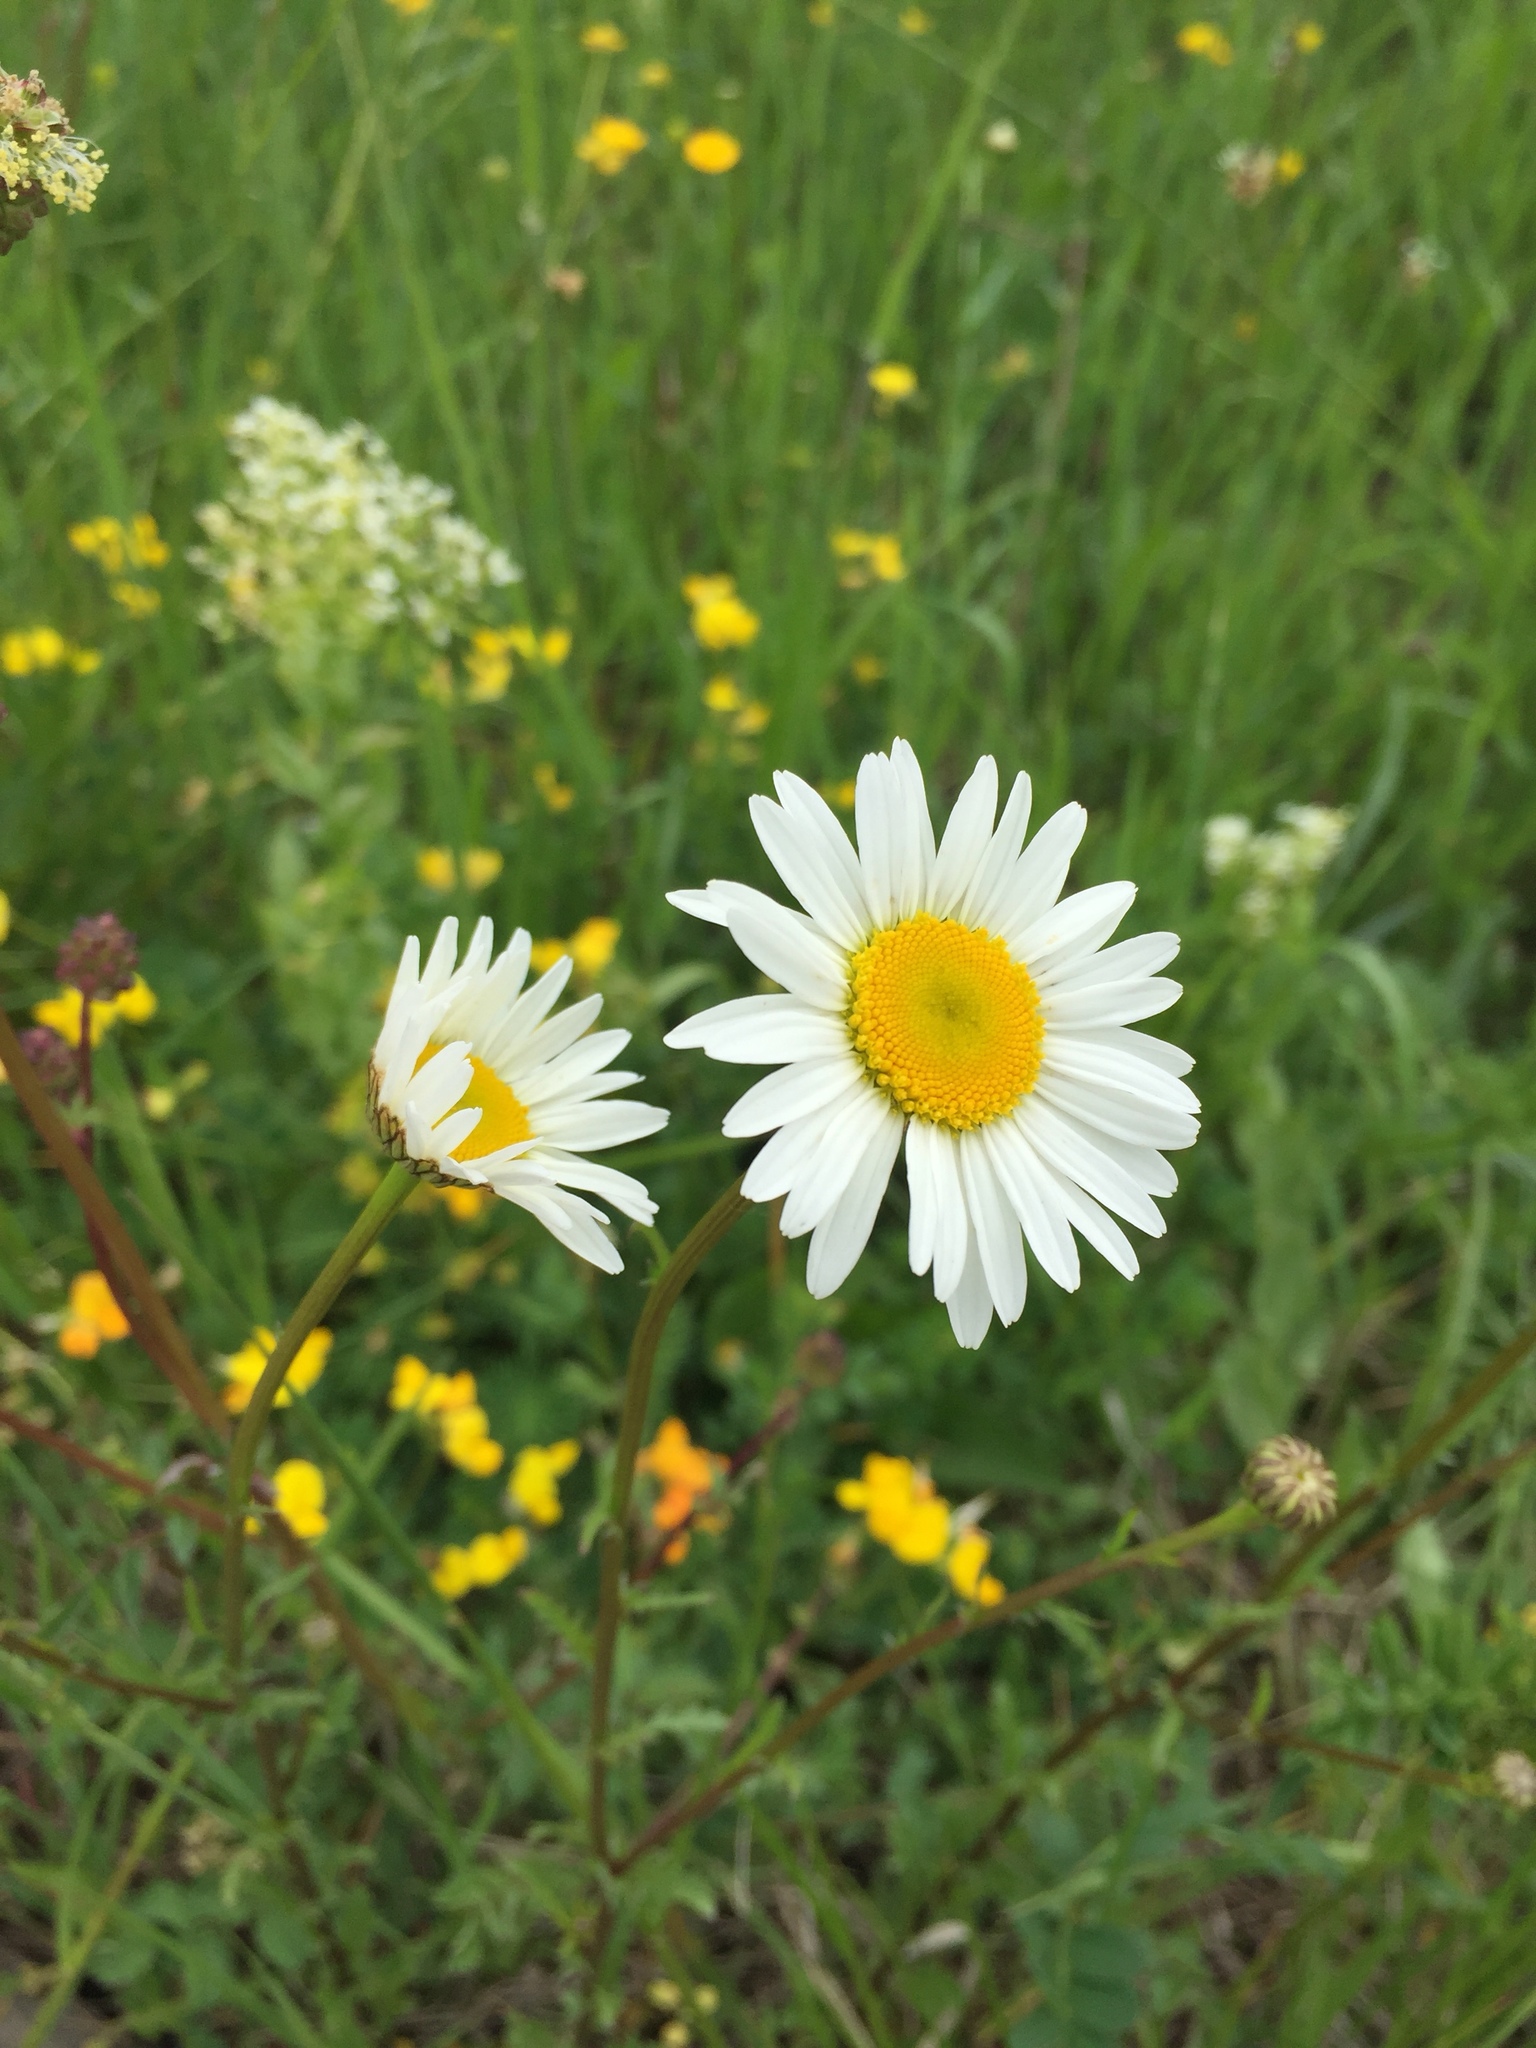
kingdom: Plantae
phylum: Tracheophyta
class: Magnoliopsida
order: Asterales
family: Asteraceae
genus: Leucanthemum
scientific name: Leucanthemum vulgare
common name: Oxeye daisy
